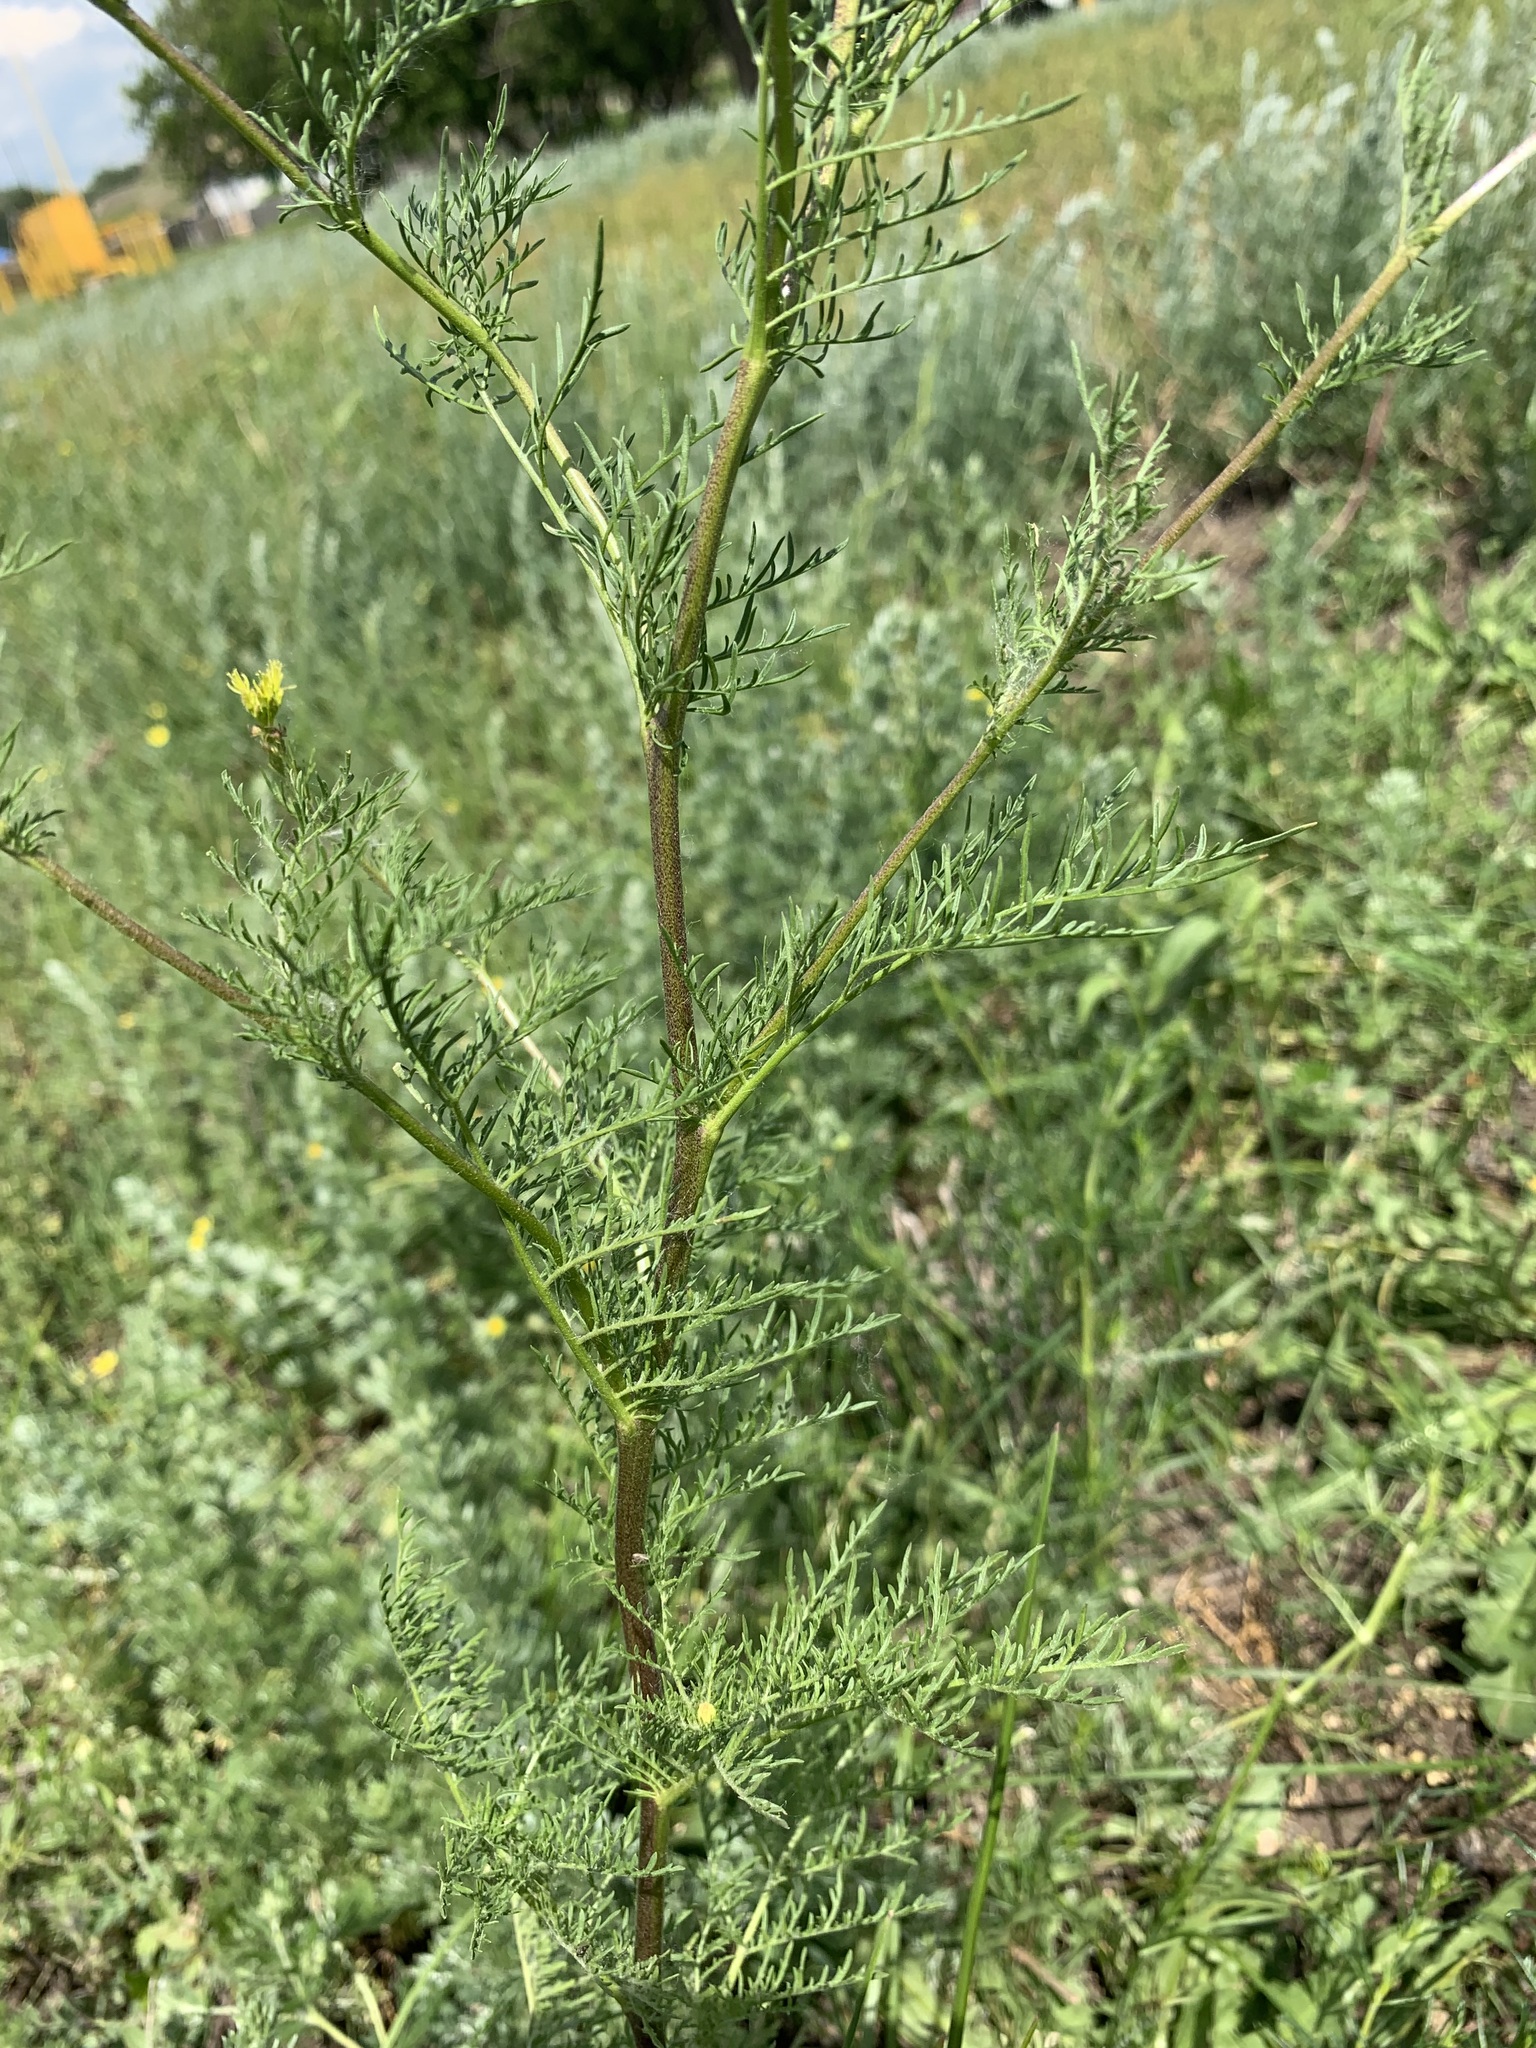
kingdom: Plantae
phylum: Tracheophyta
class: Magnoliopsida
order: Brassicales
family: Brassicaceae
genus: Descurainia
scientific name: Descurainia sophia
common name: Flixweed
